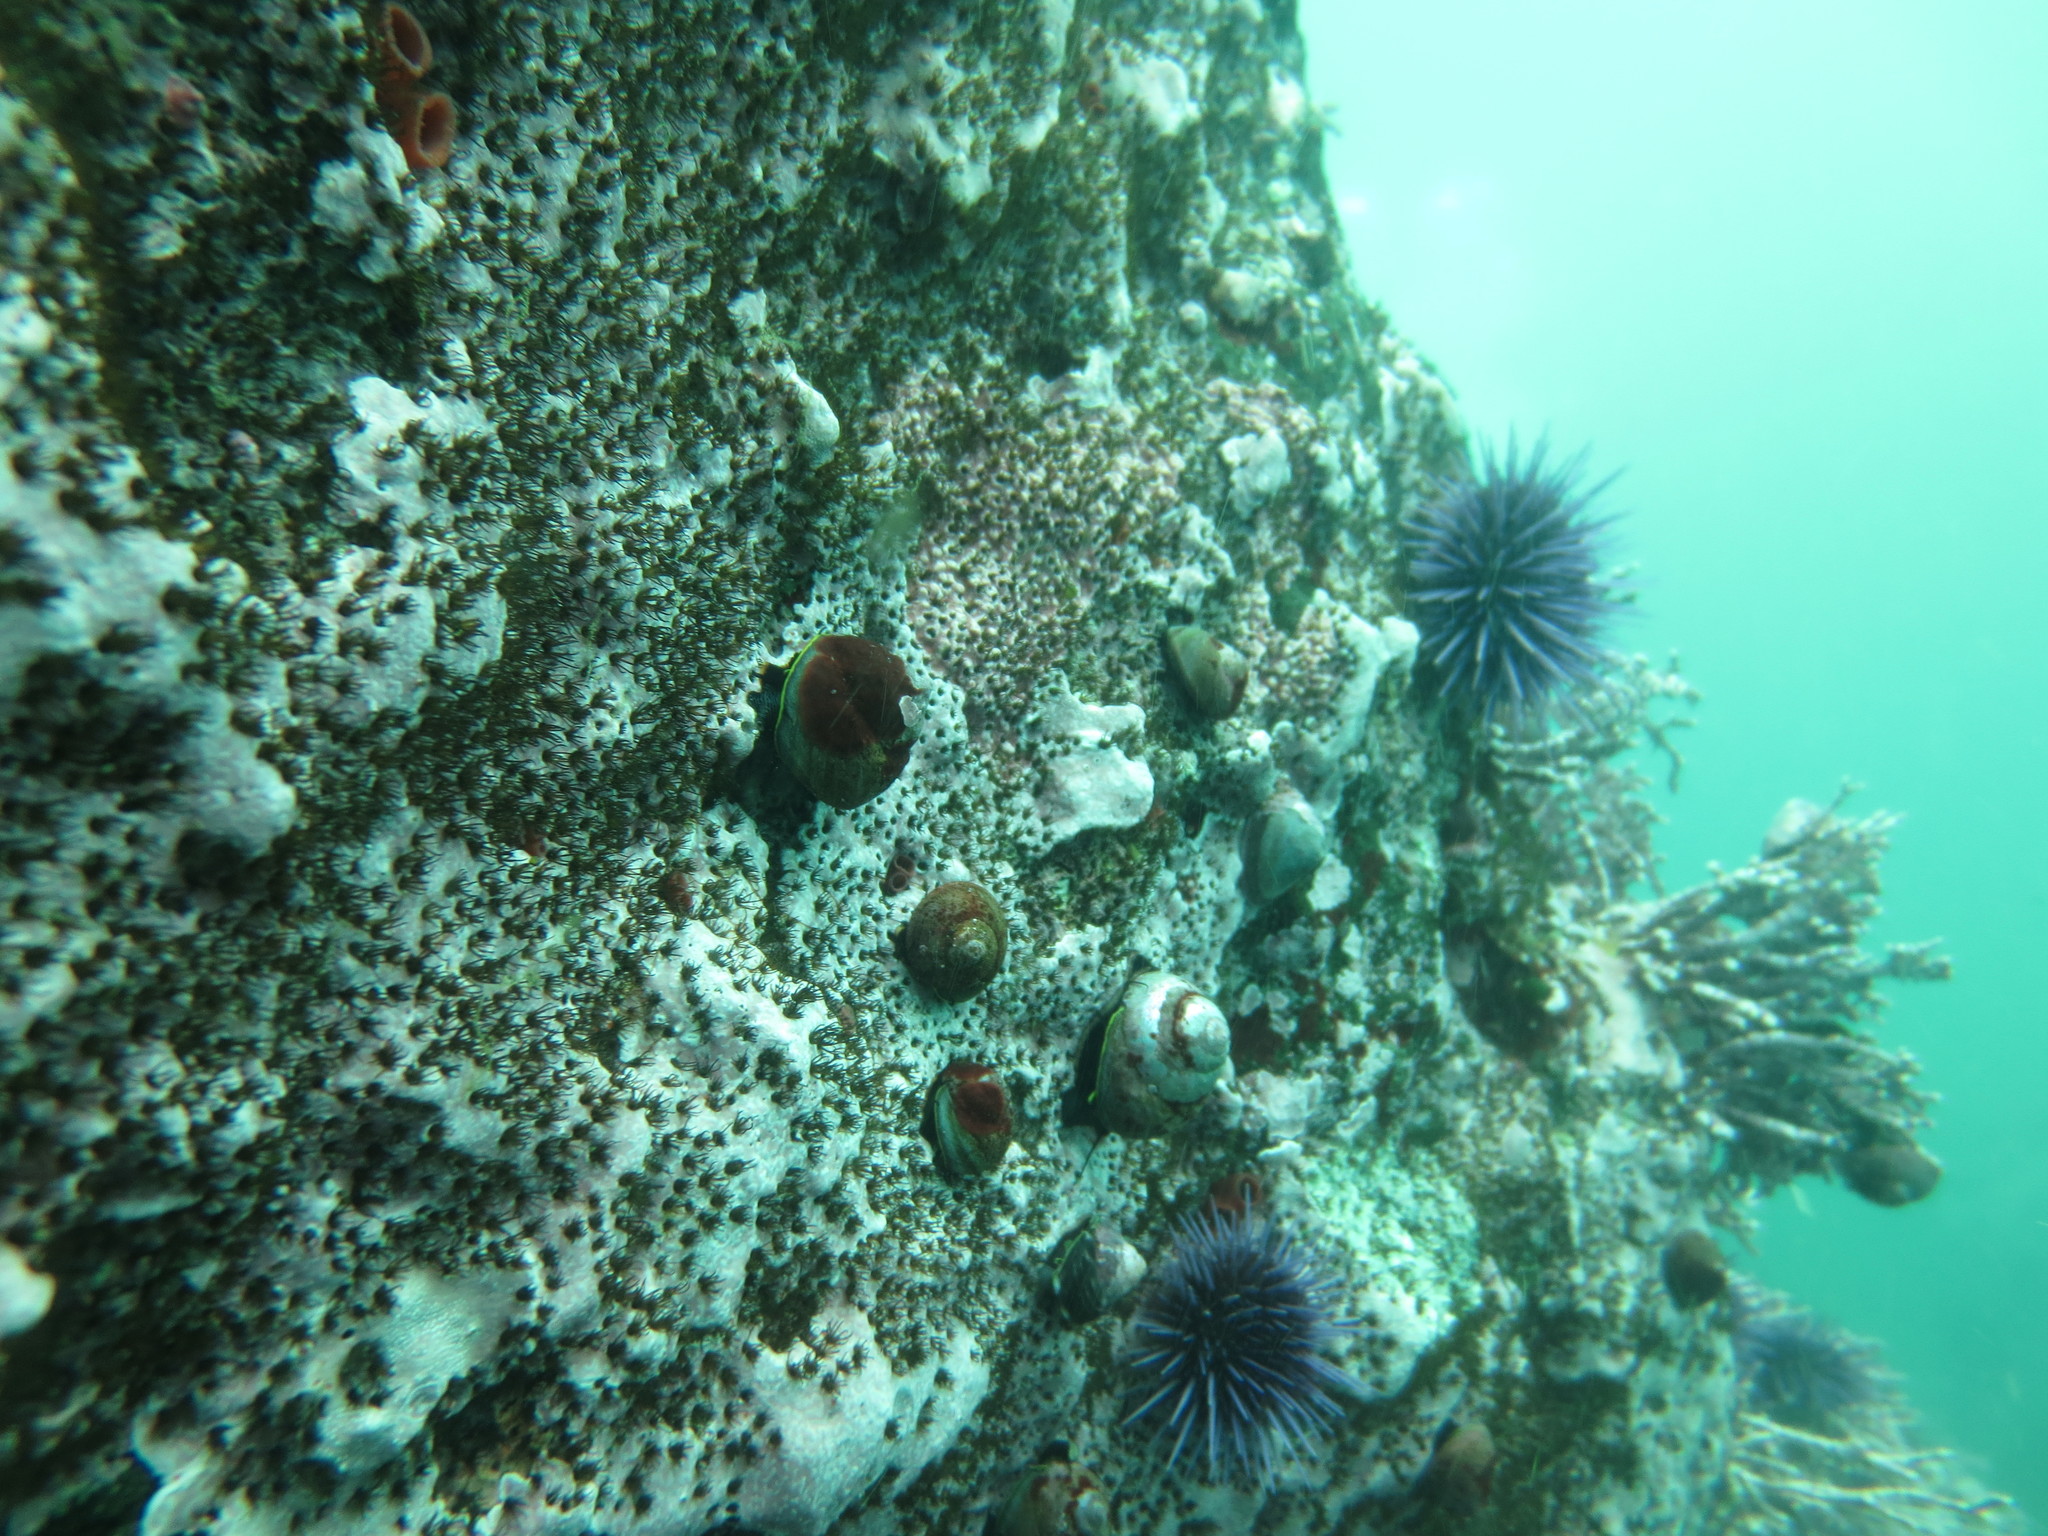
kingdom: Animalia
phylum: Annelida
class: Polychaeta
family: Cirratulidae
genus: Dodecaceria
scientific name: Dodecaceria concharum
